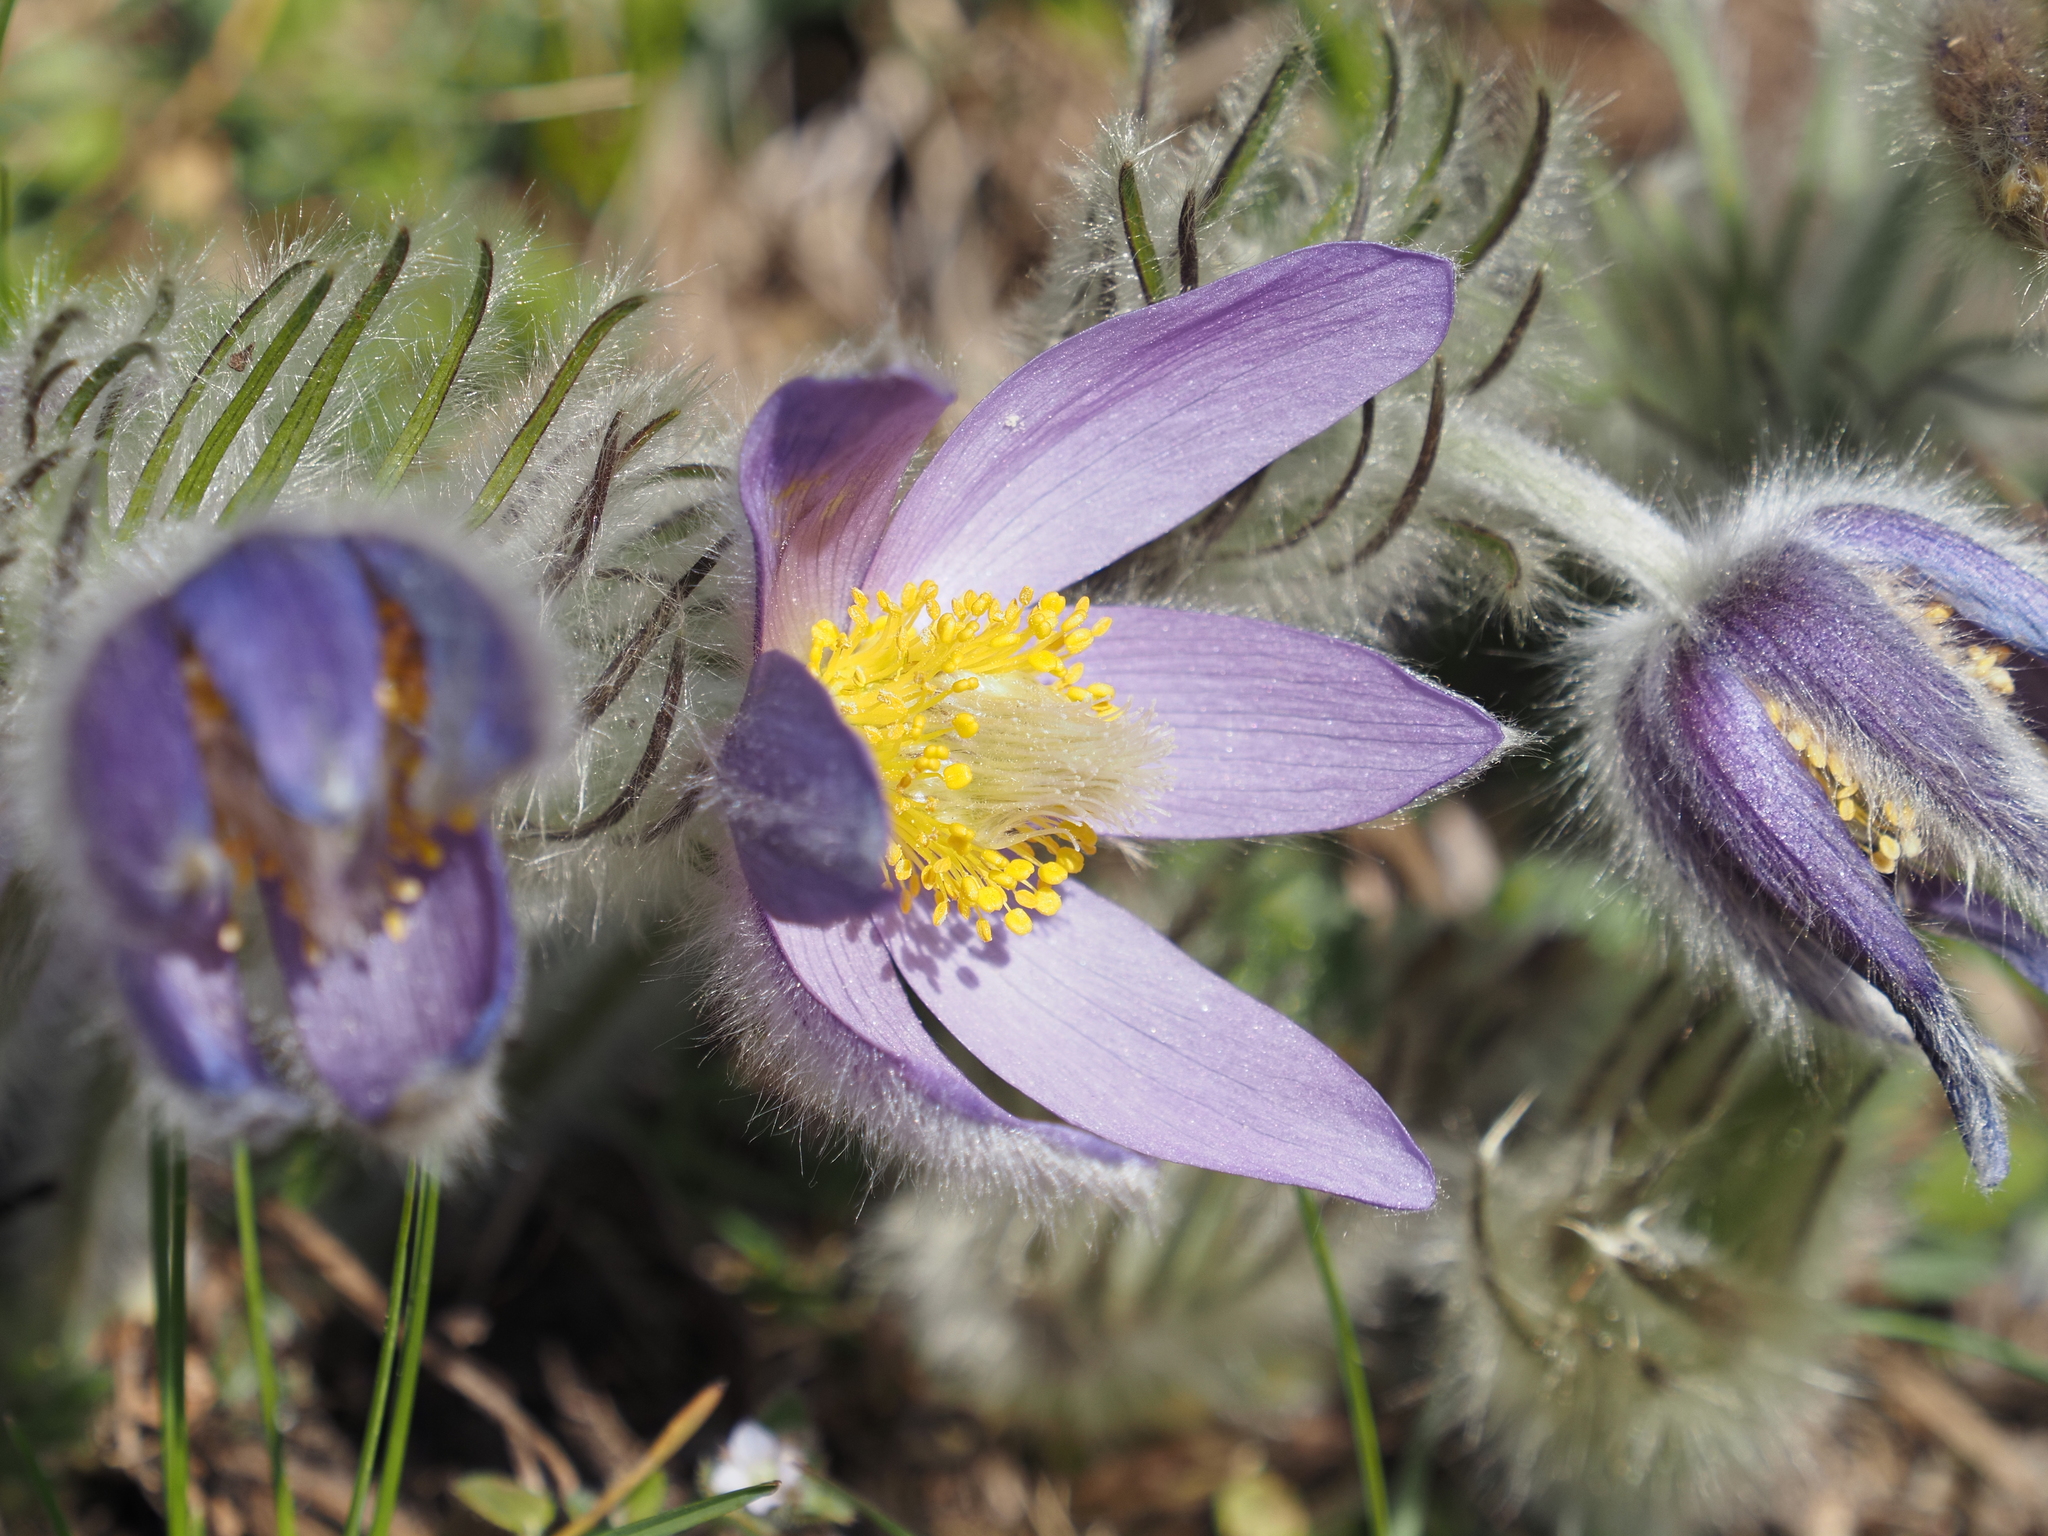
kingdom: Plantae
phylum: Tracheophyta
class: Magnoliopsida
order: Ranunculales
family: Ranunculaceae
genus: Pulsatilla
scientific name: Pulsatilla grandis
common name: Greater pasque flower
